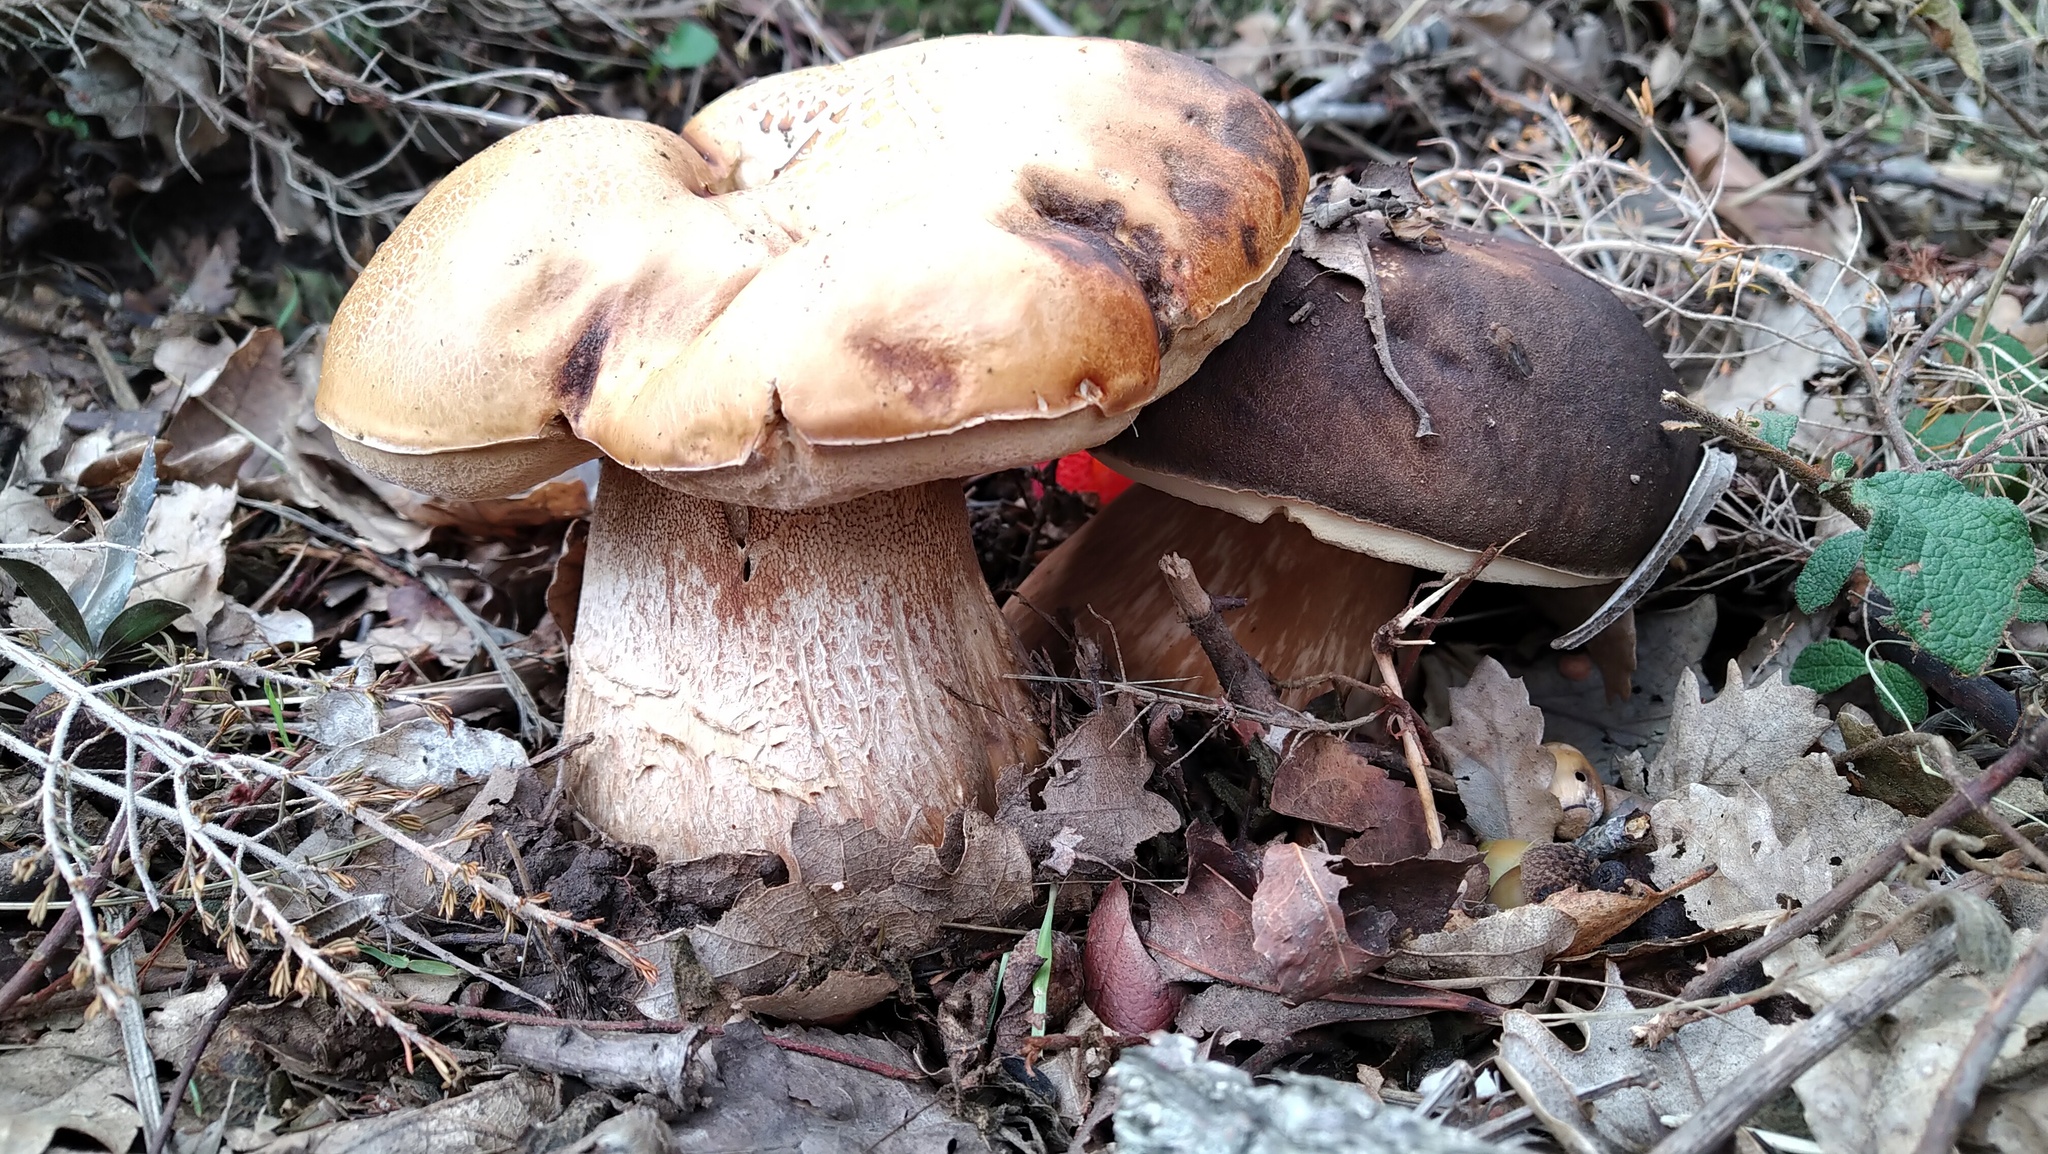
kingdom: Fungi
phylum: Basidiomycota
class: Agaricomycetes
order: Boletales
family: Boletaceae
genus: Boletus
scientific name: Boletus aereus
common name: Bronze bolete
